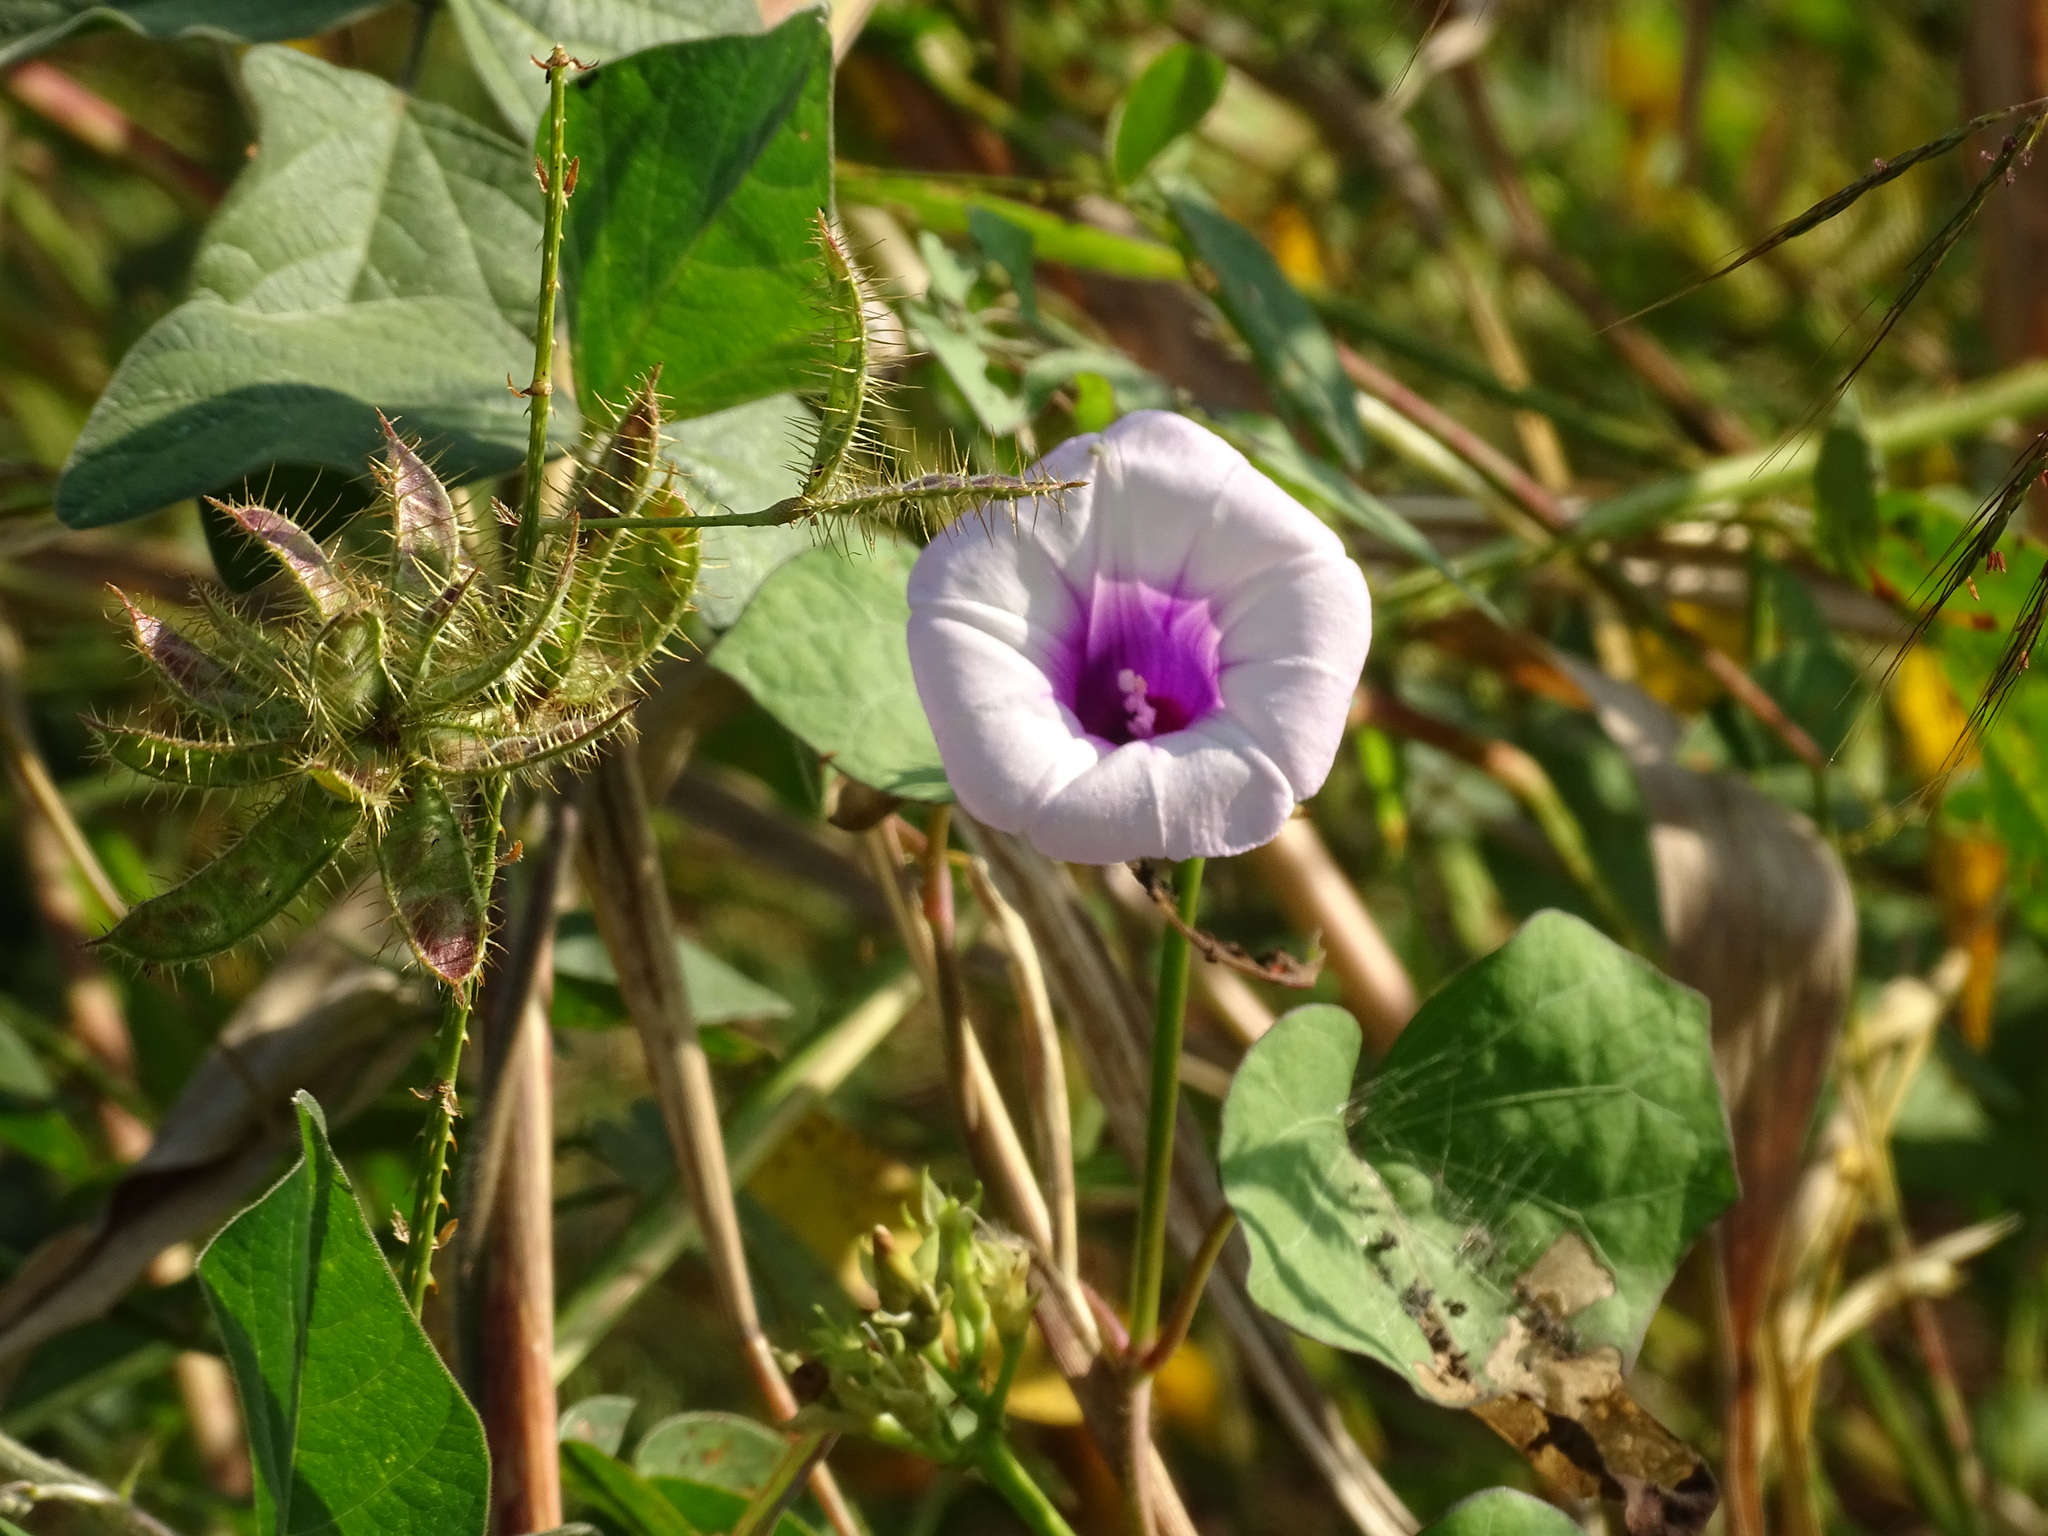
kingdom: Plantae
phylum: Tracheophyta
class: Magnoliopsida
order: Solanales
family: Convolvulaceae
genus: Ipomoea
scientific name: Ipomoea batatas
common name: Sweet-potato
